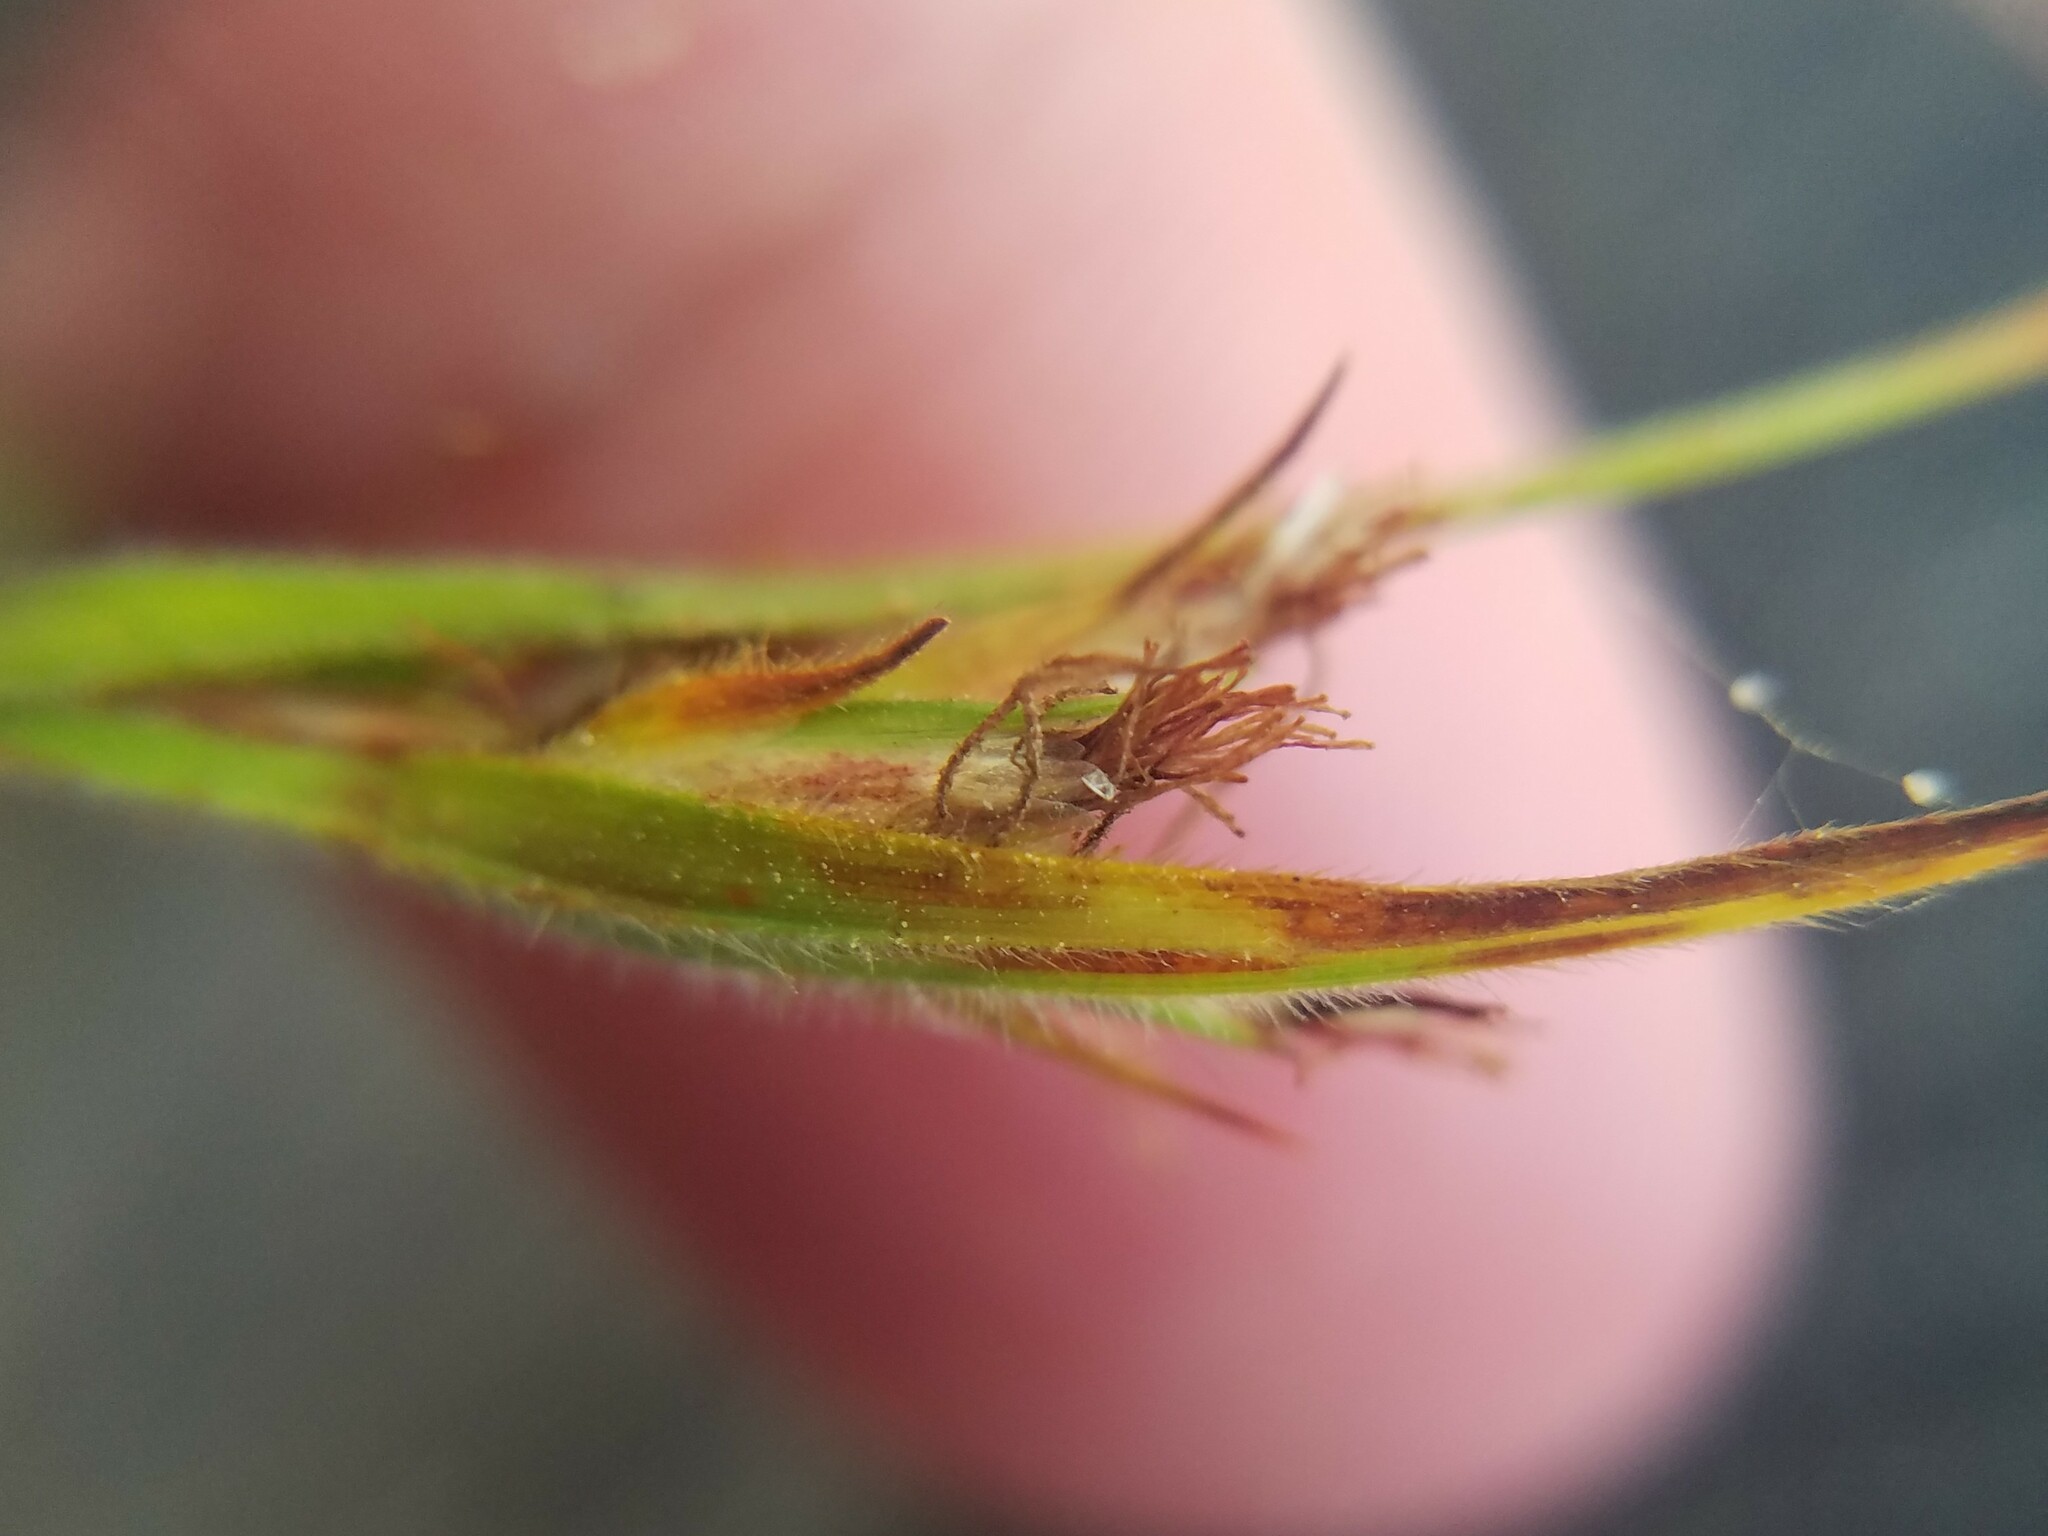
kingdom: Plantae
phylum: Tracheophyta
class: Liliopsida
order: Poales
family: Cyperaceae
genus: Scleria
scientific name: Scleria ciliata
